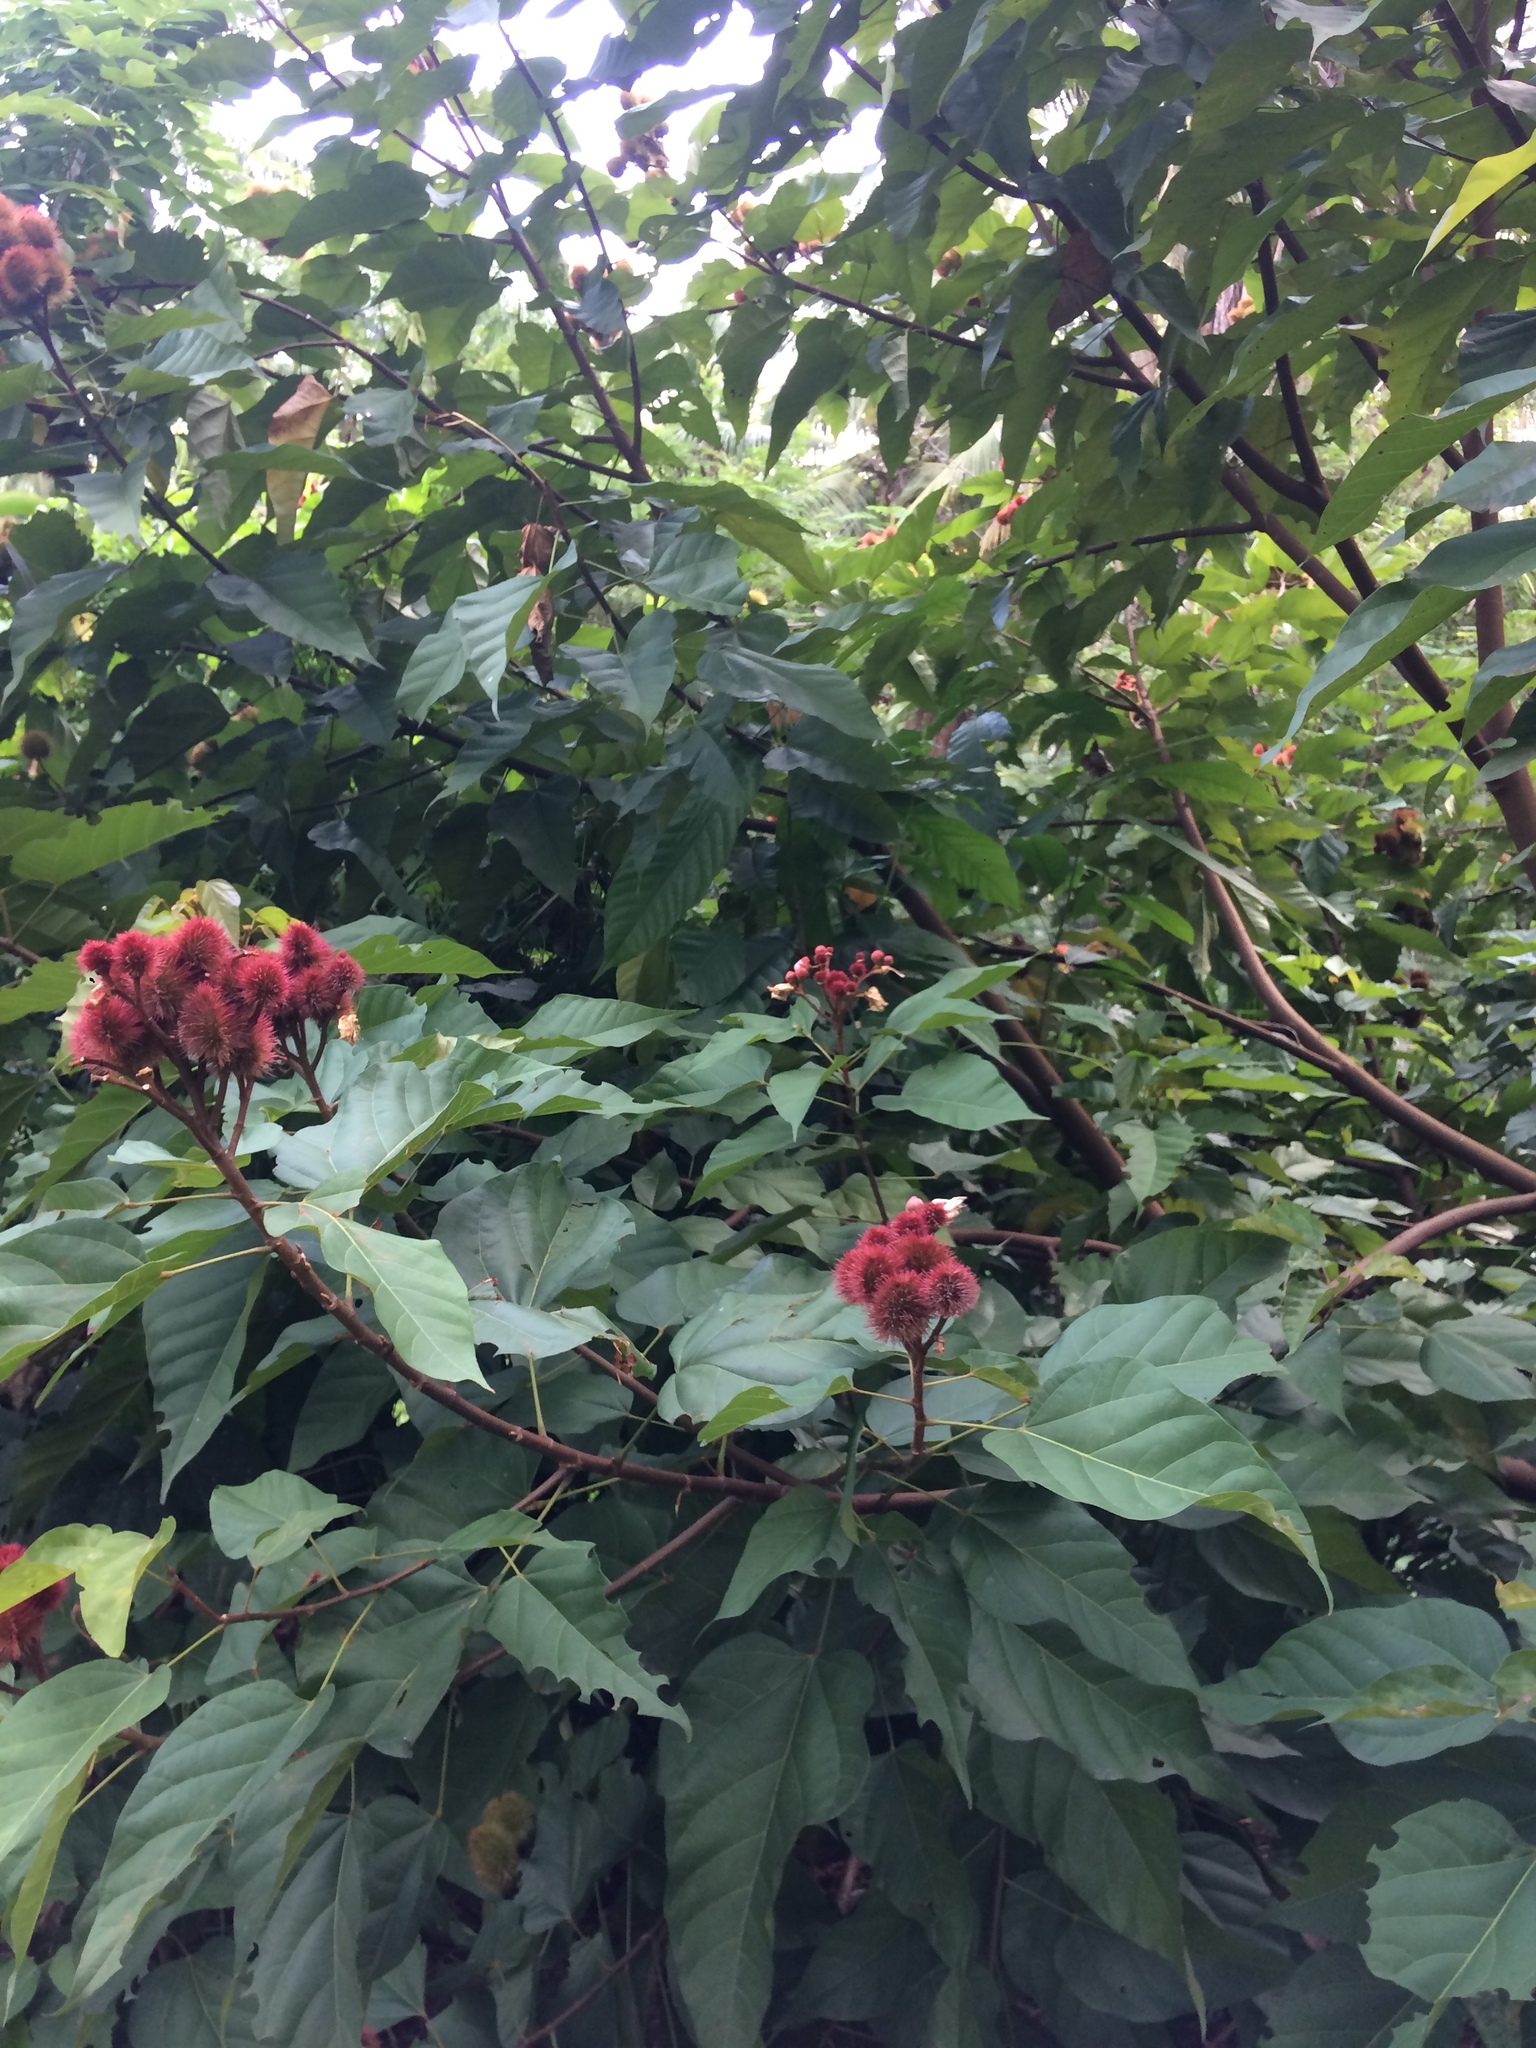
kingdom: Plantae
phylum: Tracheophyta
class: Magnoliopsida
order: Malvales
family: Bixaceae
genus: Bixa
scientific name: Bixa orellana
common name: Lipsticktree
